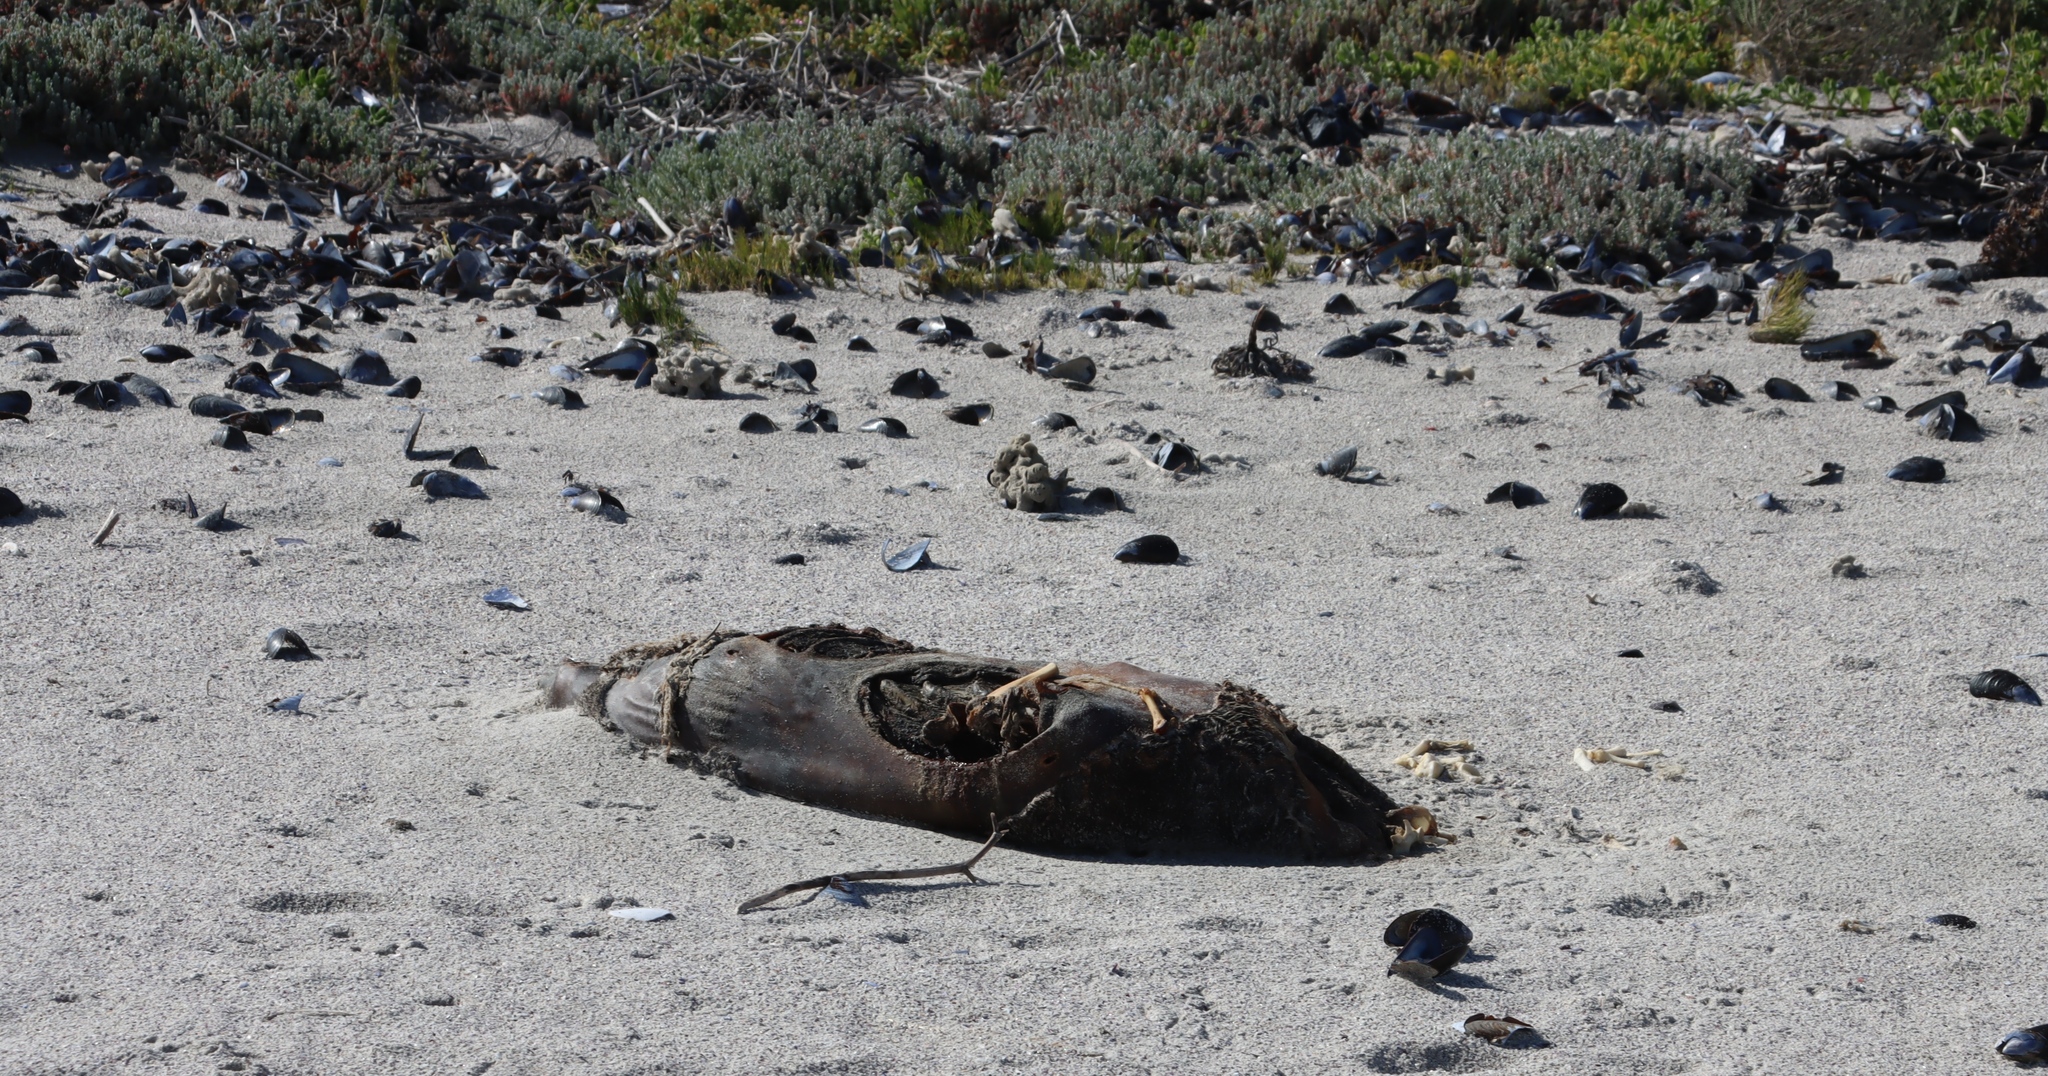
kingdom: Animalia
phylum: Chordata
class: Mammalia
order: Carnivora
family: Otariidae
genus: Arctocephalus
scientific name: Arctocephalus pusillus
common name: Brown fur seal
